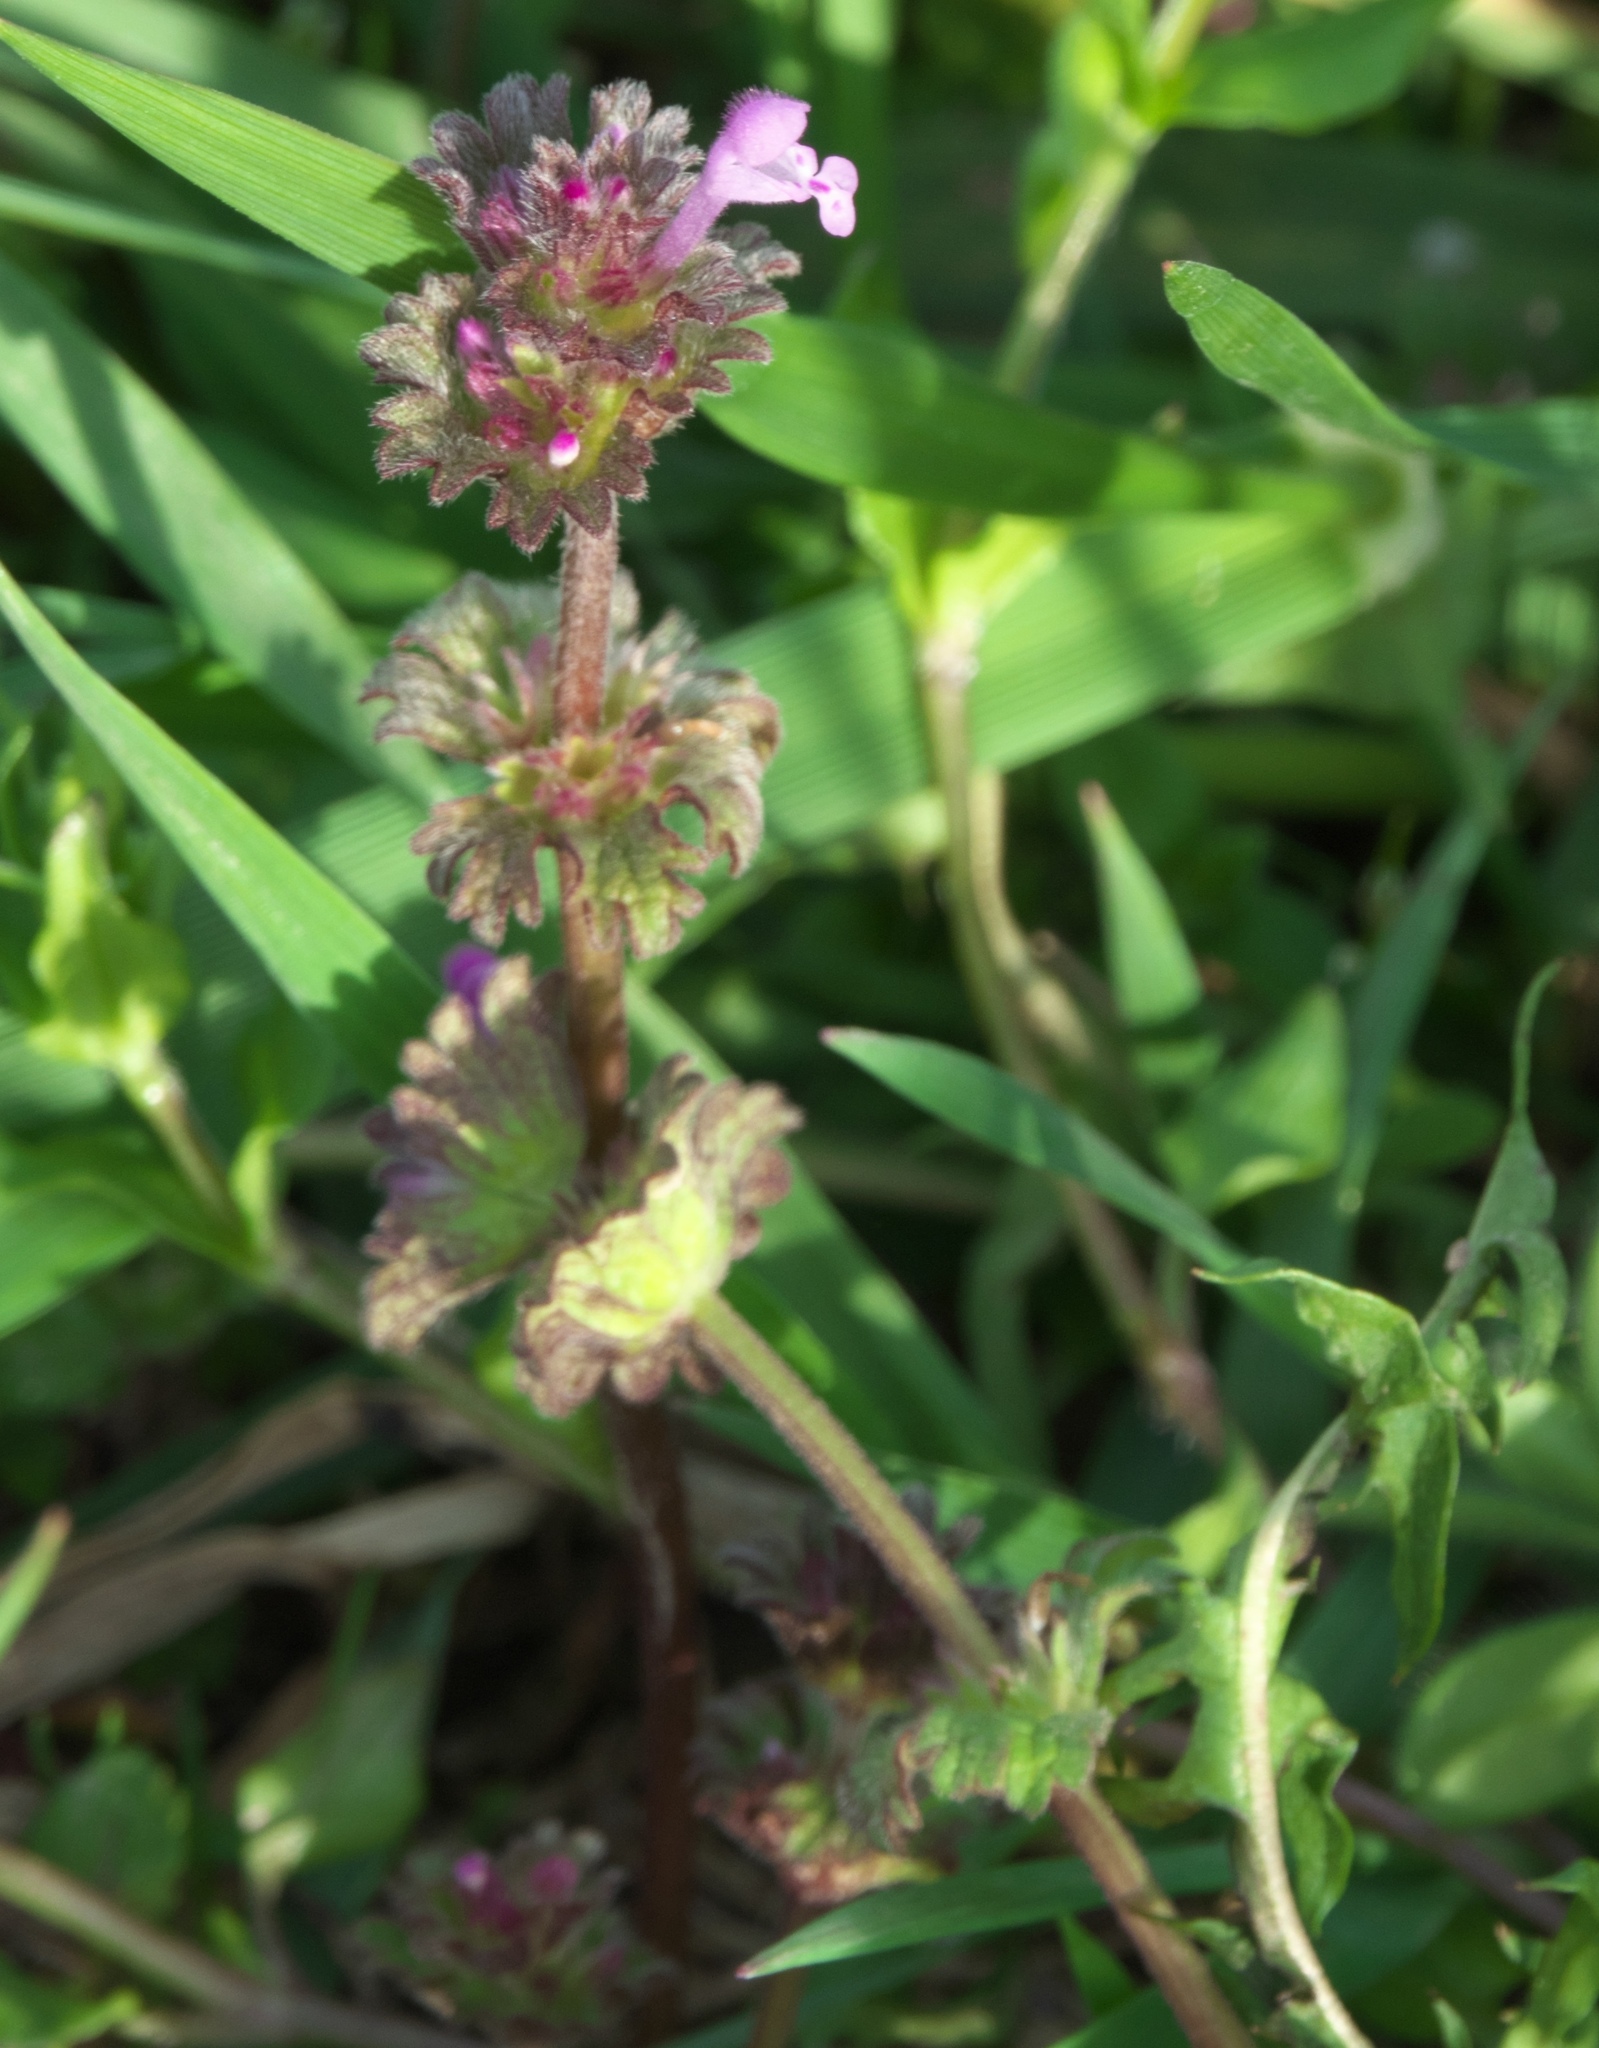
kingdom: Plantae
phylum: Tracheophyta
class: Magnoliopsida
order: Lamiales
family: Lamiaceae
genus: Lamium
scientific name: Lamium amplexicaule
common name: Henbit dead-nettle
